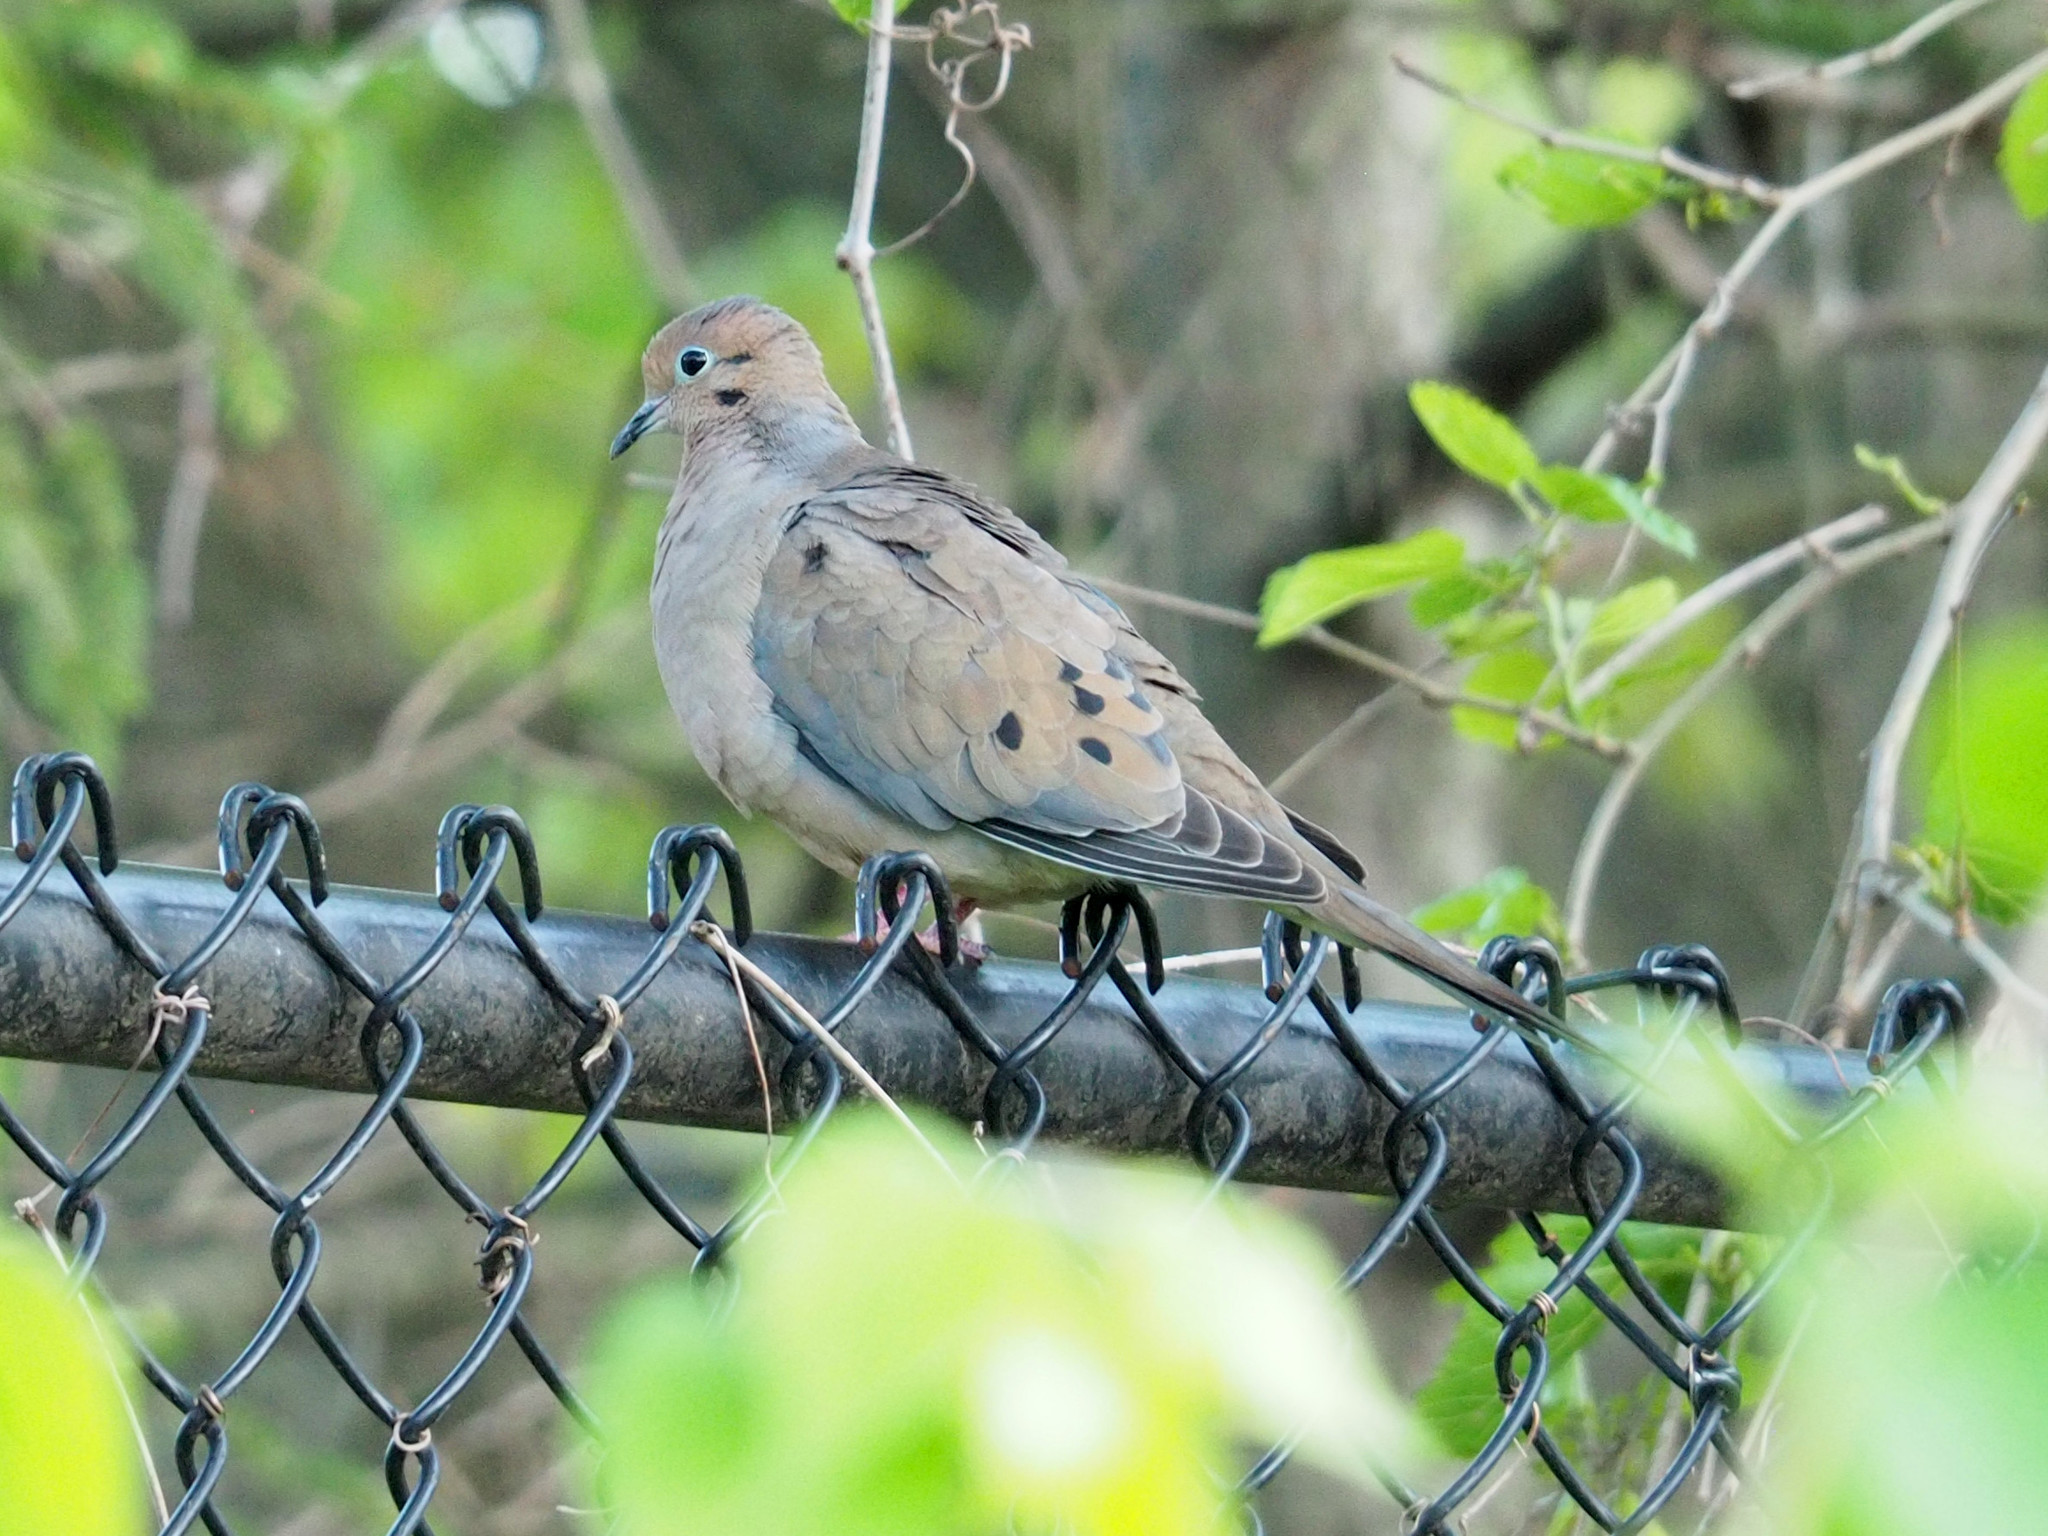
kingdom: Animalia
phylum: Chordata
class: Aves
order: Columbiformes
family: Columbidae
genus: Zenaida
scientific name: Zenaida macroura
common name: Mourning dove
